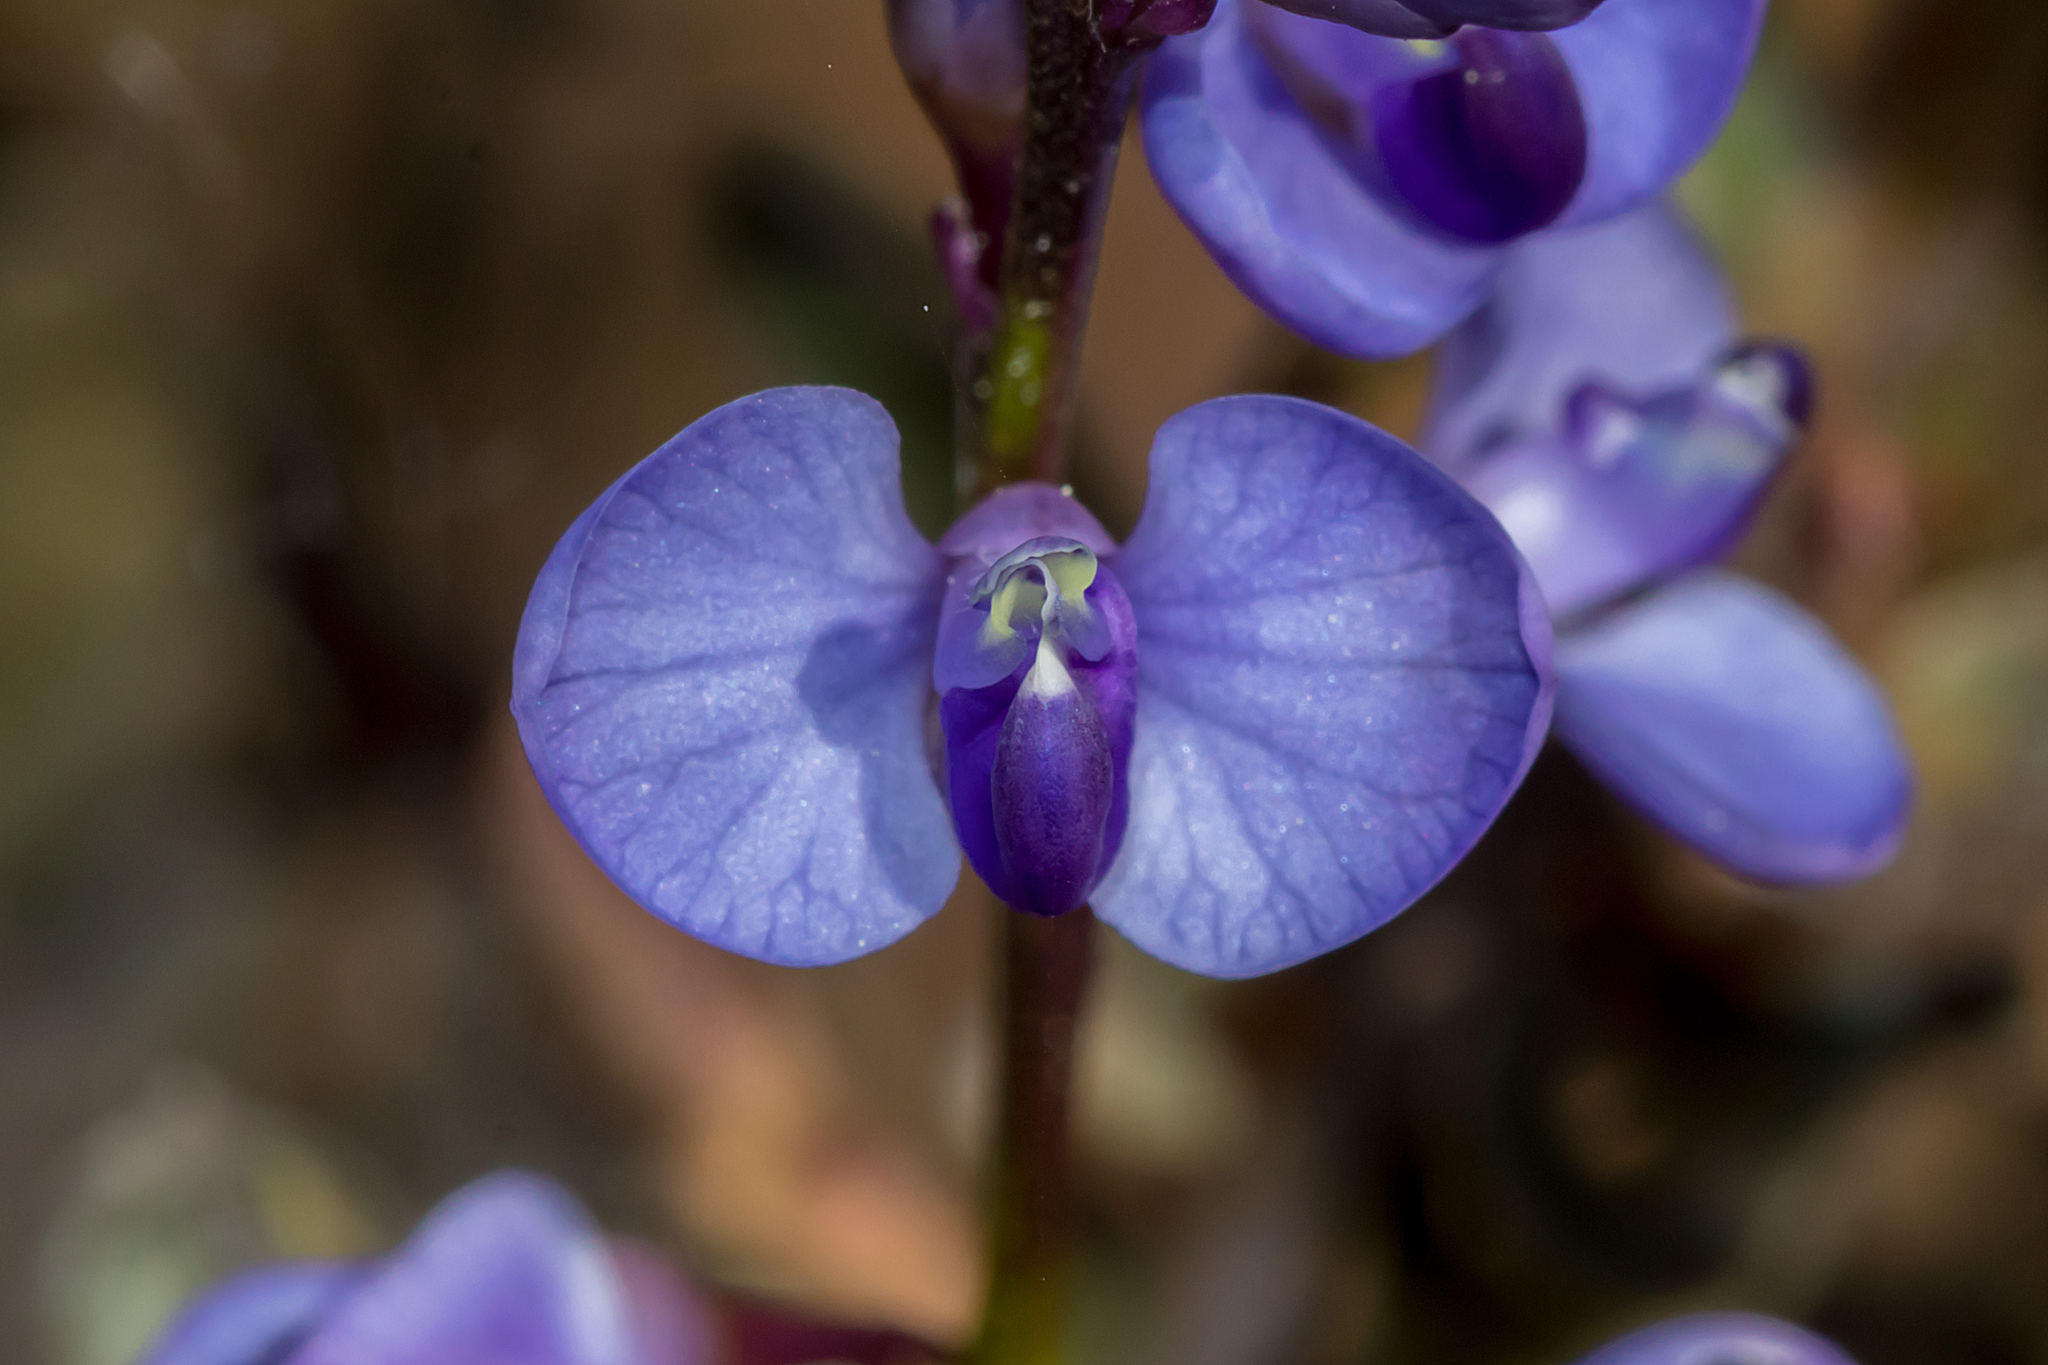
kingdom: Plantae
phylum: Tracheophyta
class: Magnoliopsida
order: Fabales
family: Polygalaceae
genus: Comesperma
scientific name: Comesperma volubile
